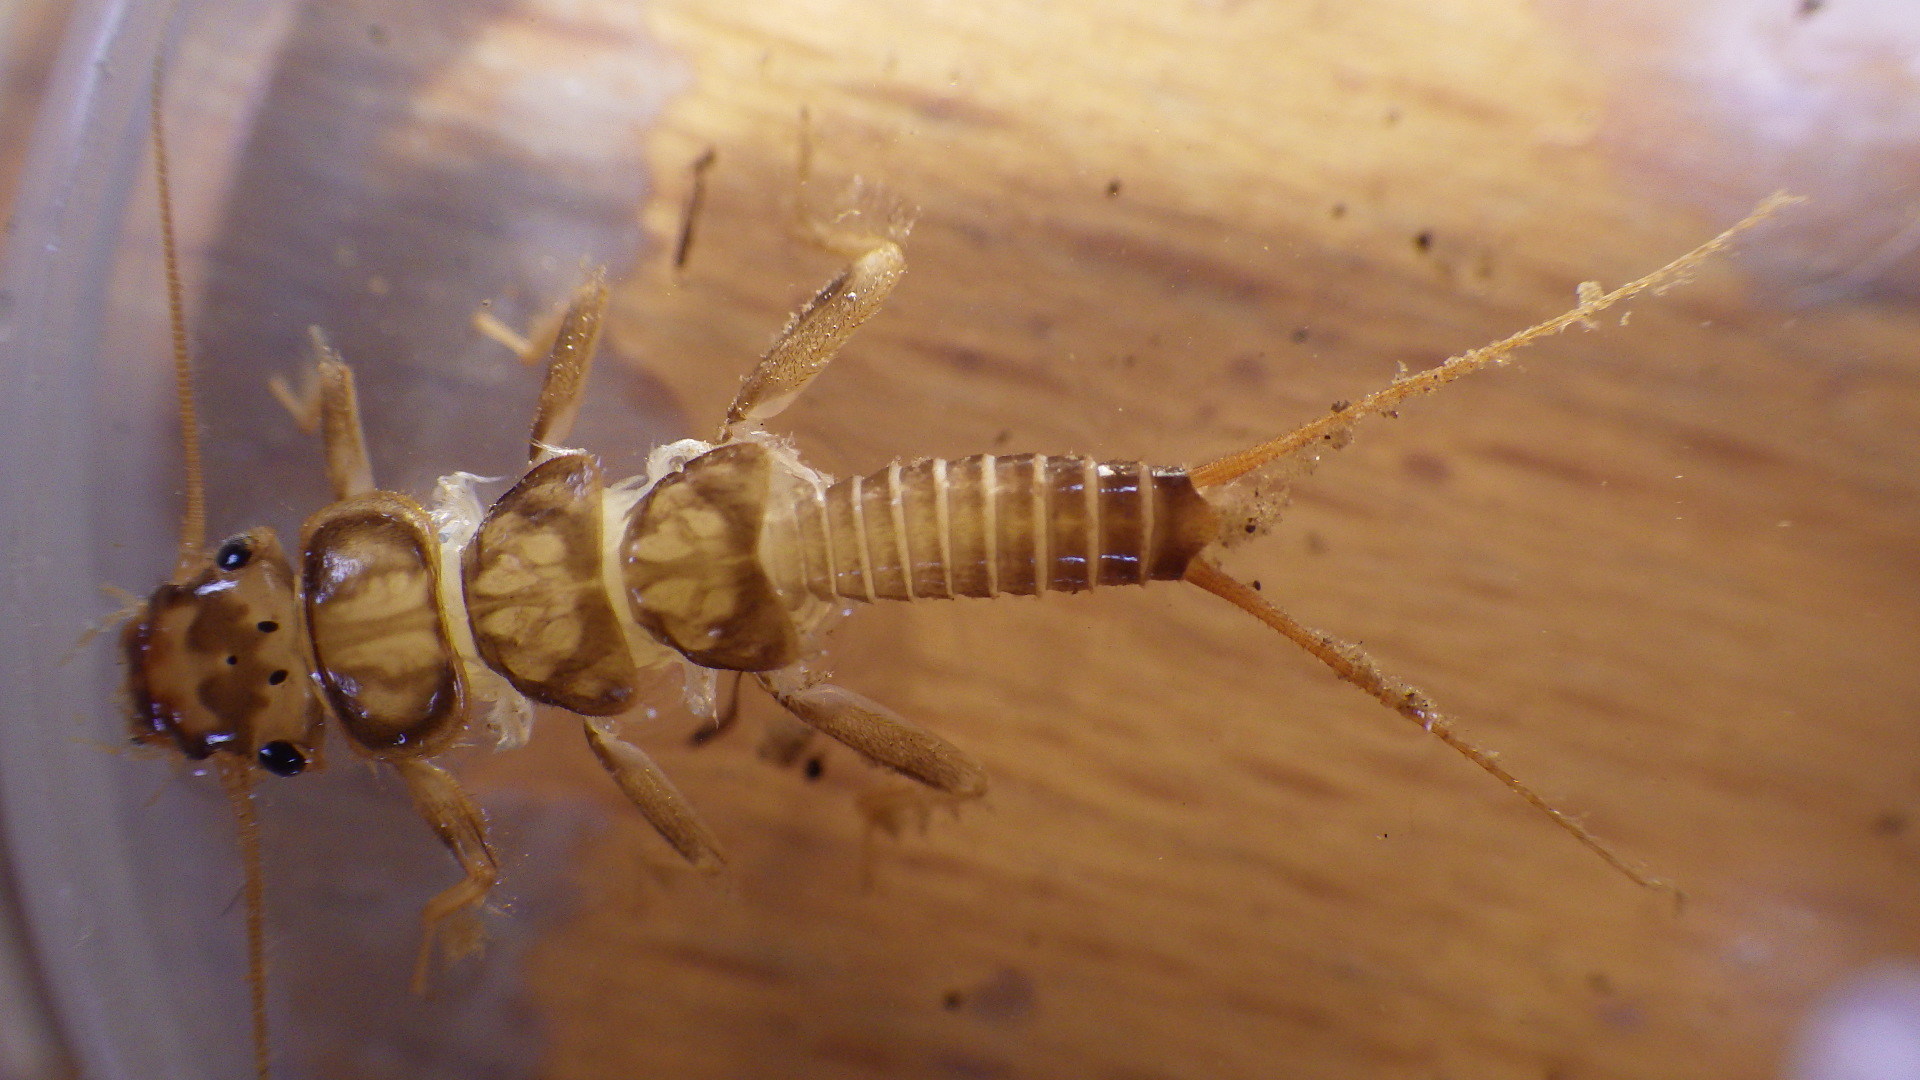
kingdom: Animalia
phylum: Arthropoda
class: Insecta
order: Plecoptera
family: Perlidae
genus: Eccoptura
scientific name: Eccoptura xanthenes
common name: Yellow stone
